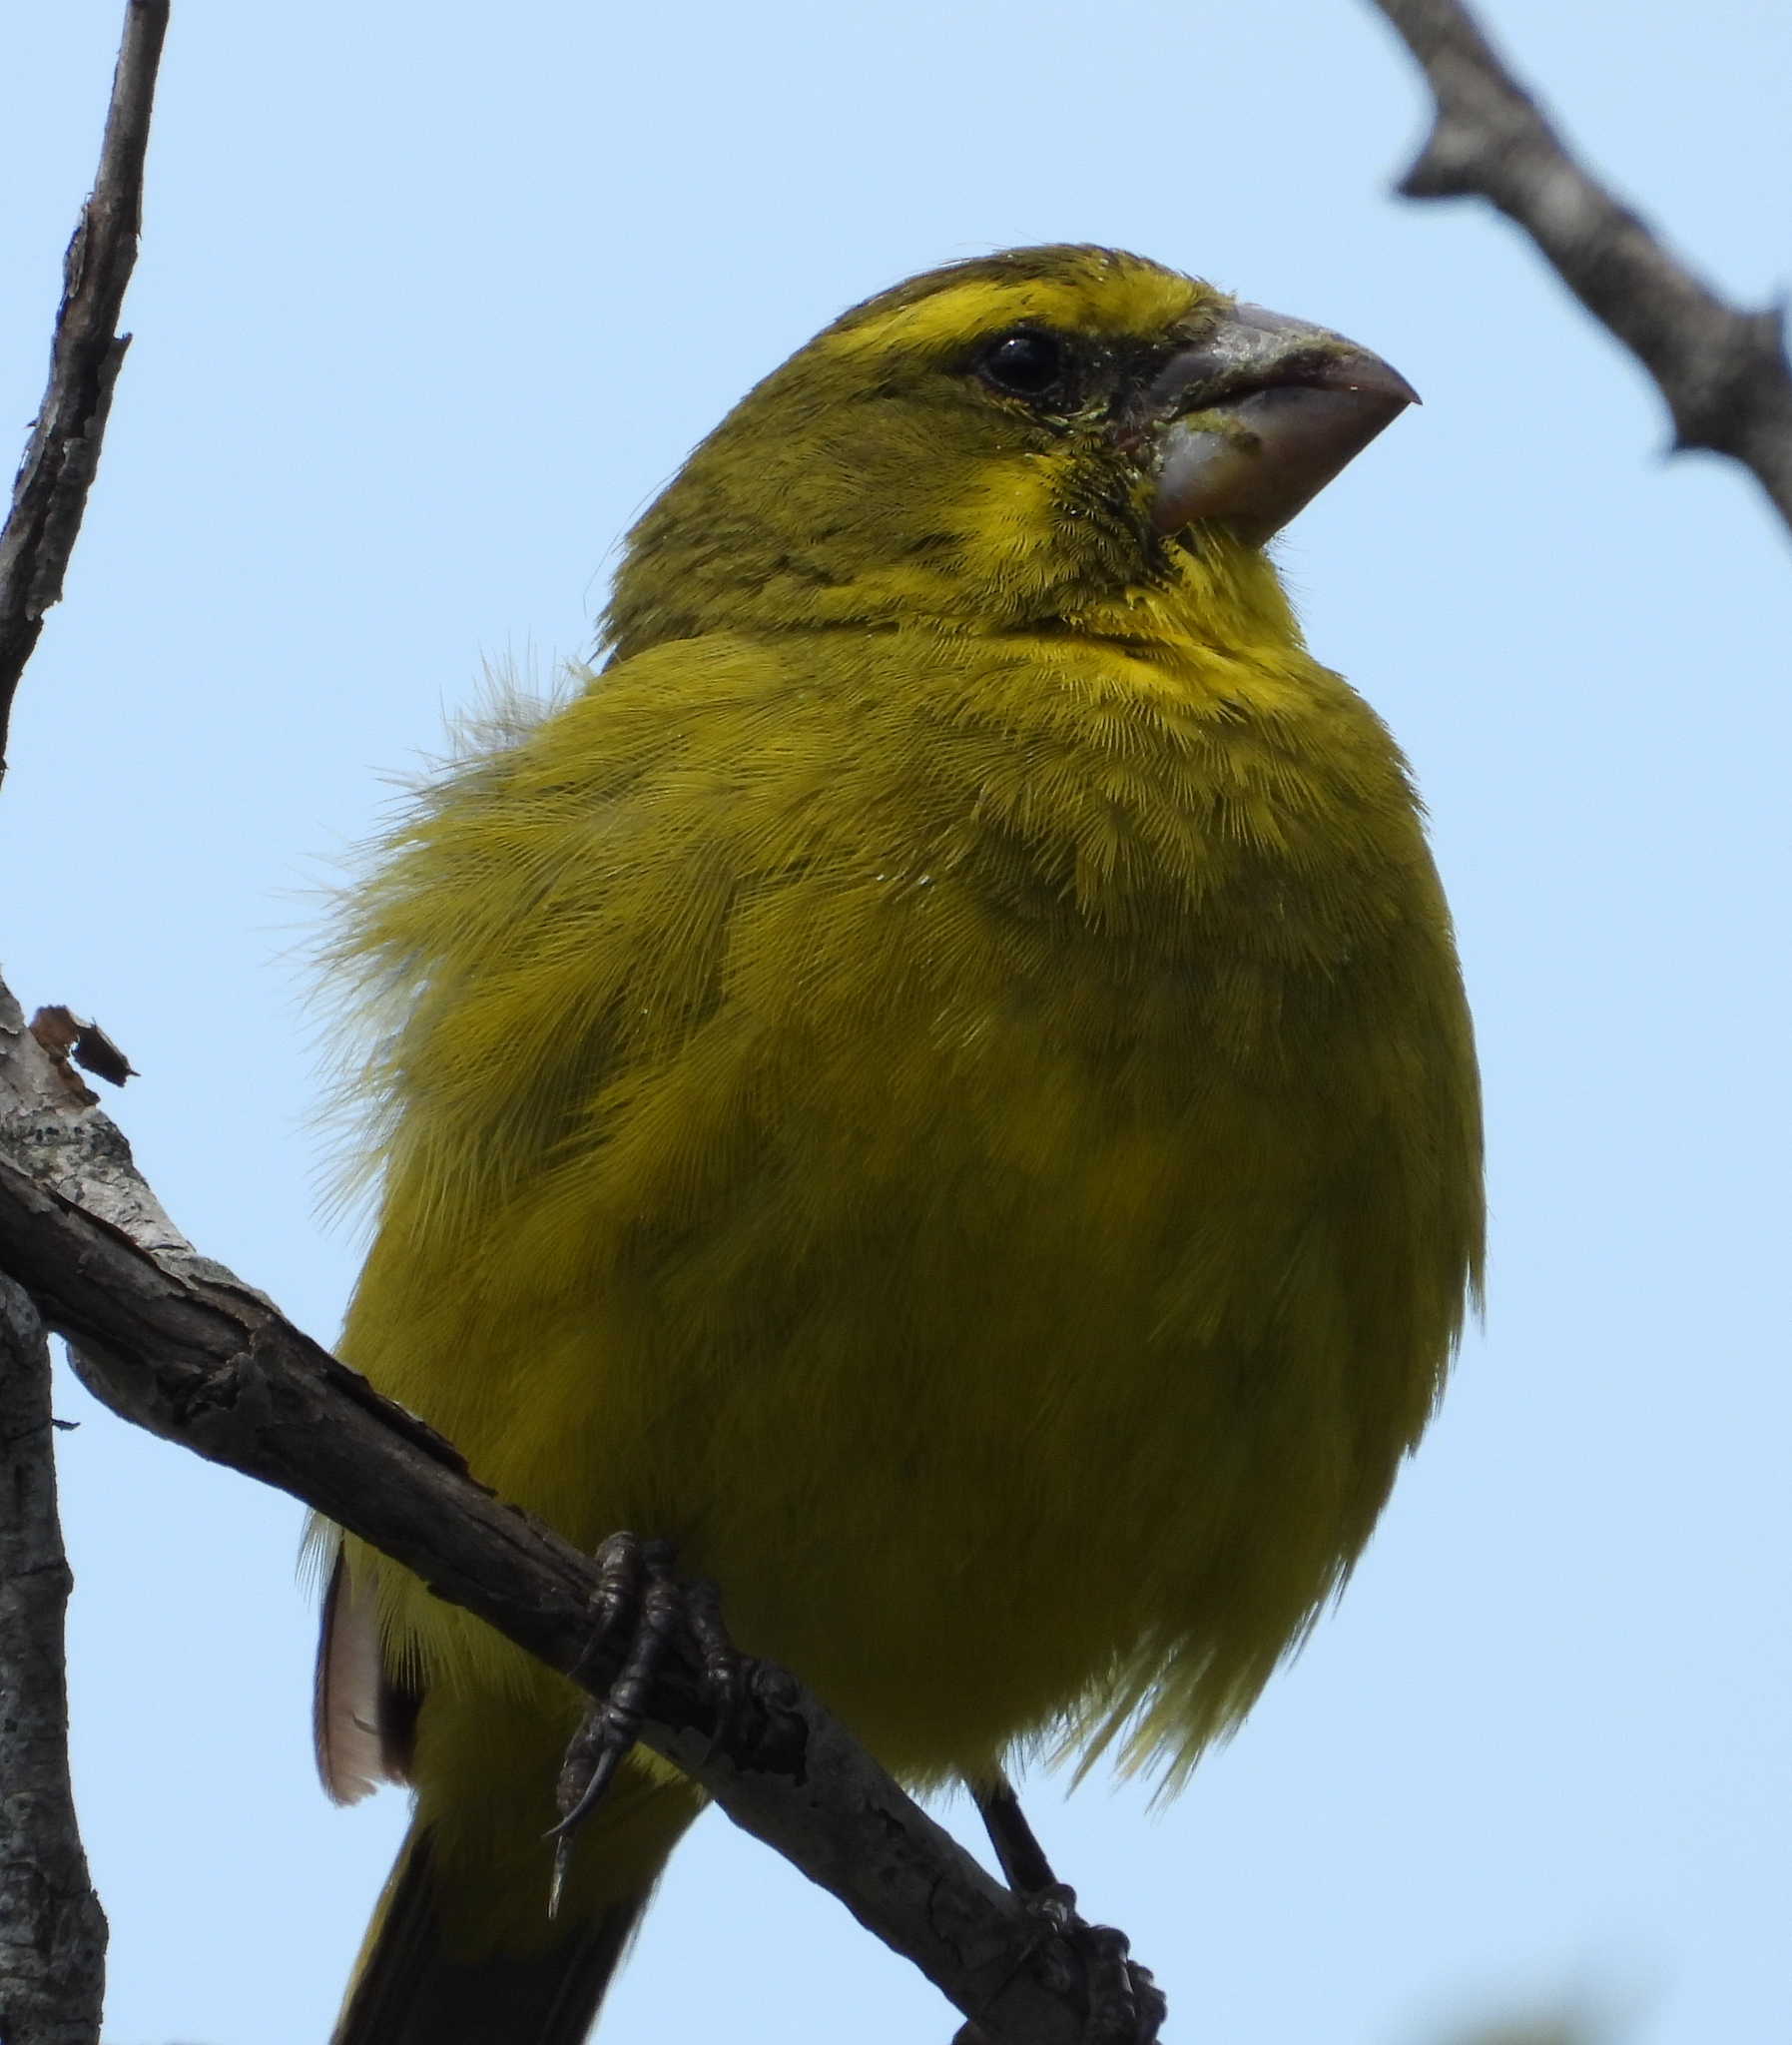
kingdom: Animalia
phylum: Chordata
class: Aves
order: Passeriformes
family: Fringillidae
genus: Crithagra
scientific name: Crithagra sulphurata
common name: Brimstone canary
